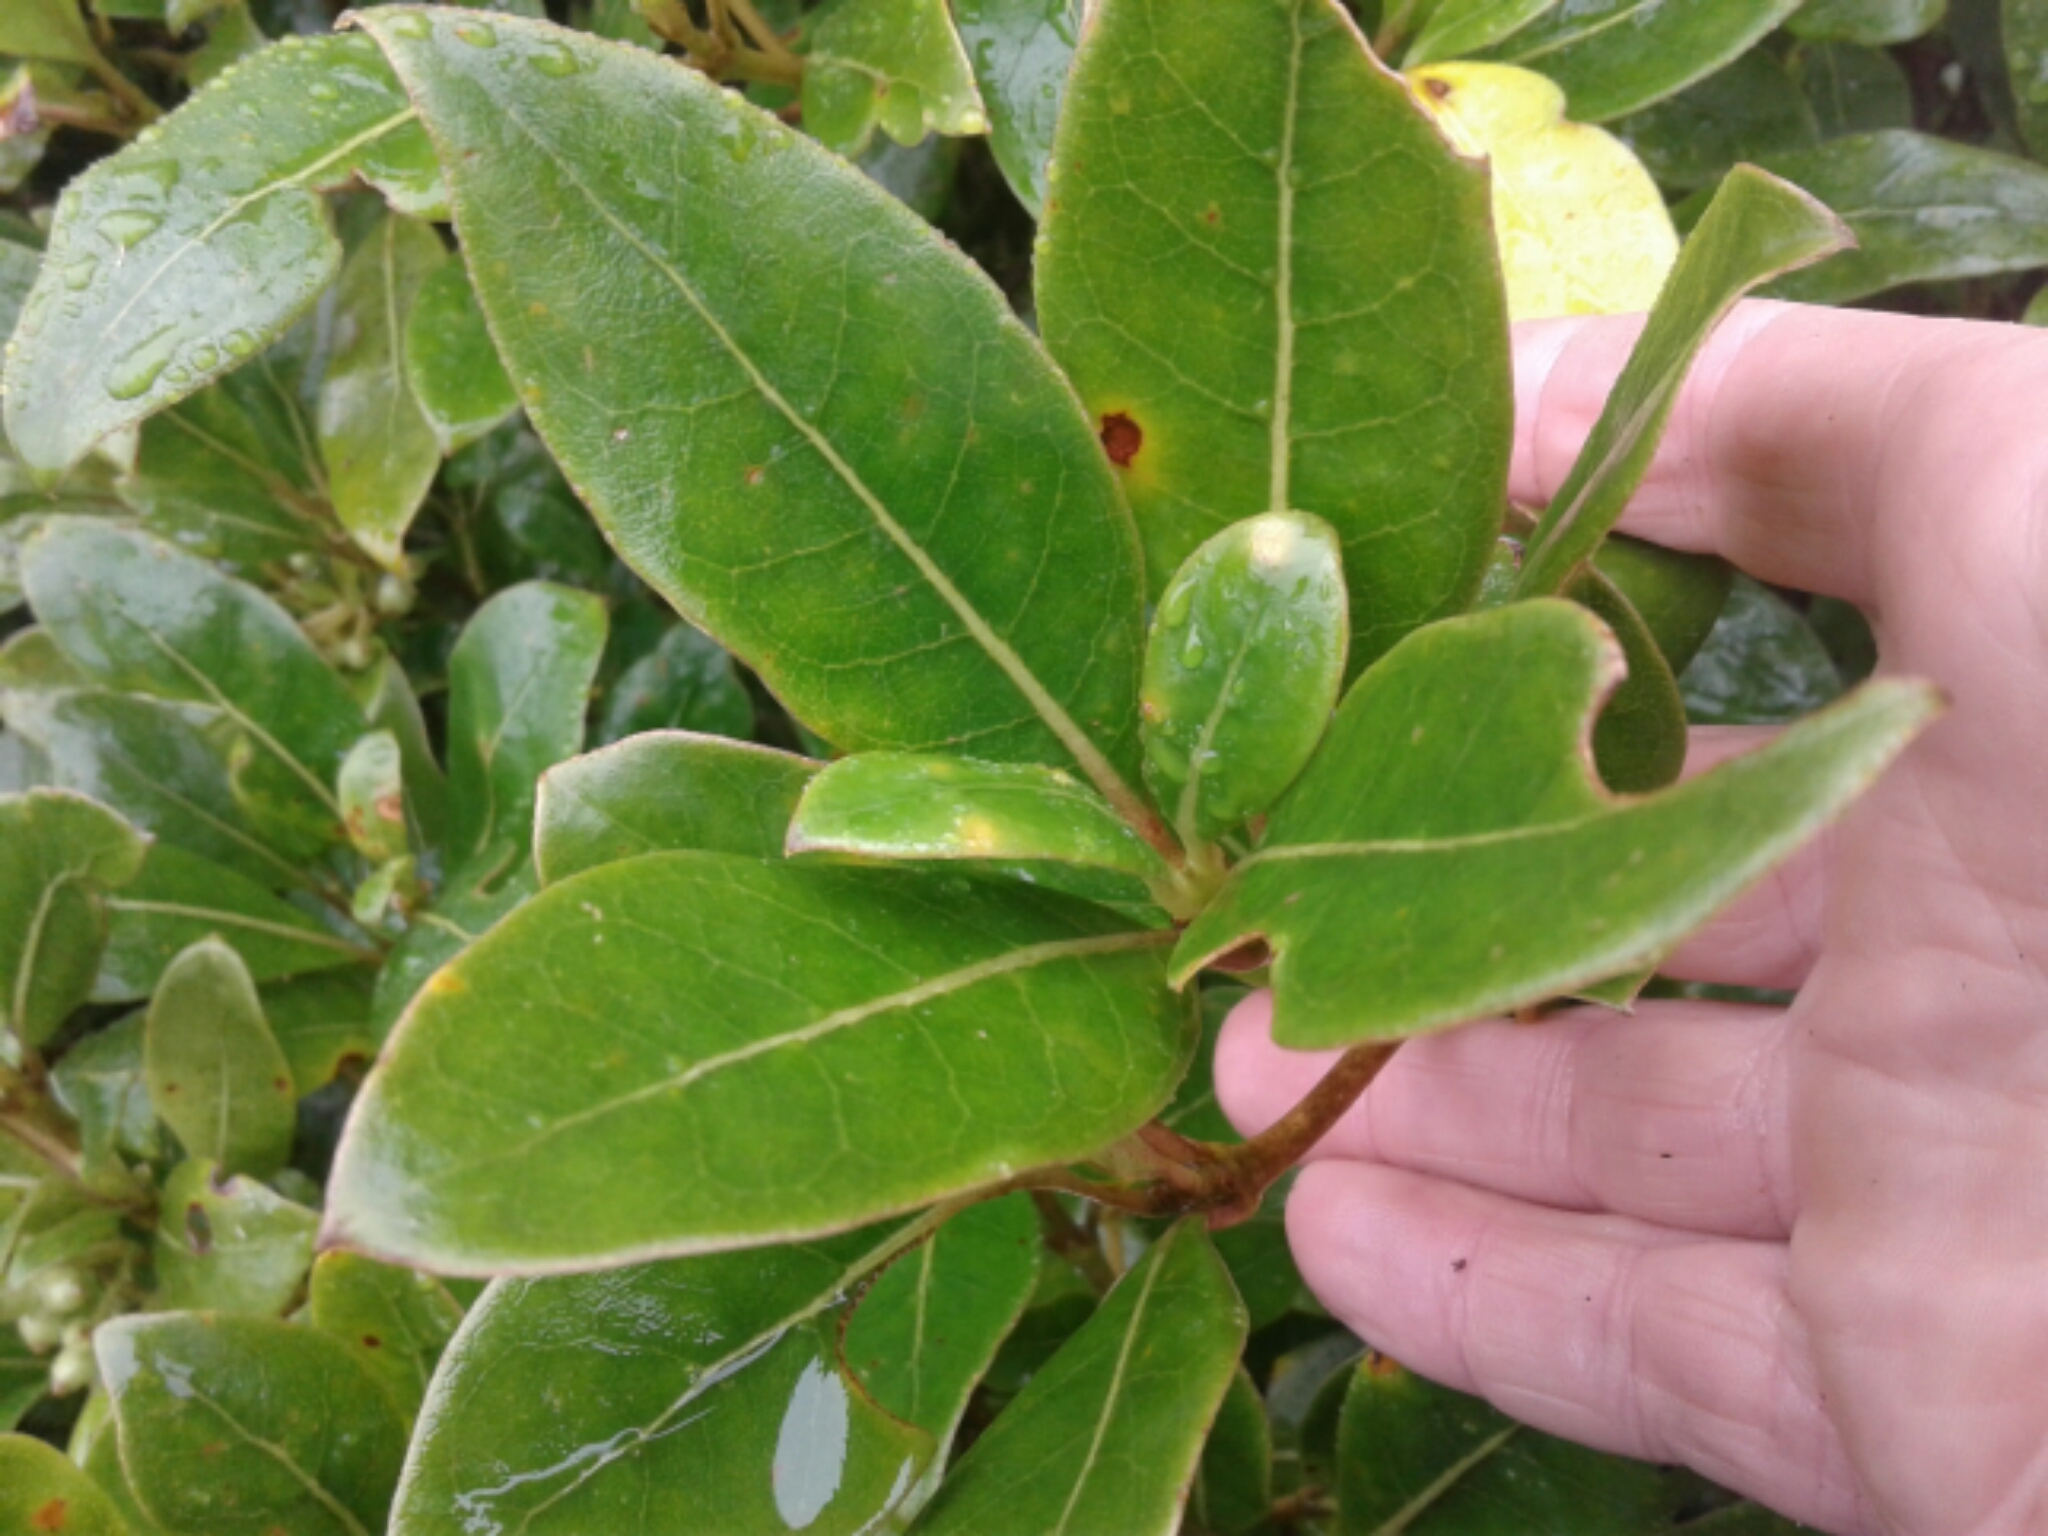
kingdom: Plantae
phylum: Tracheophyta
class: Magnoliopsida
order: Gentianales
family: Rubiaceae
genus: Coprosma
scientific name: Coprosma lucida
